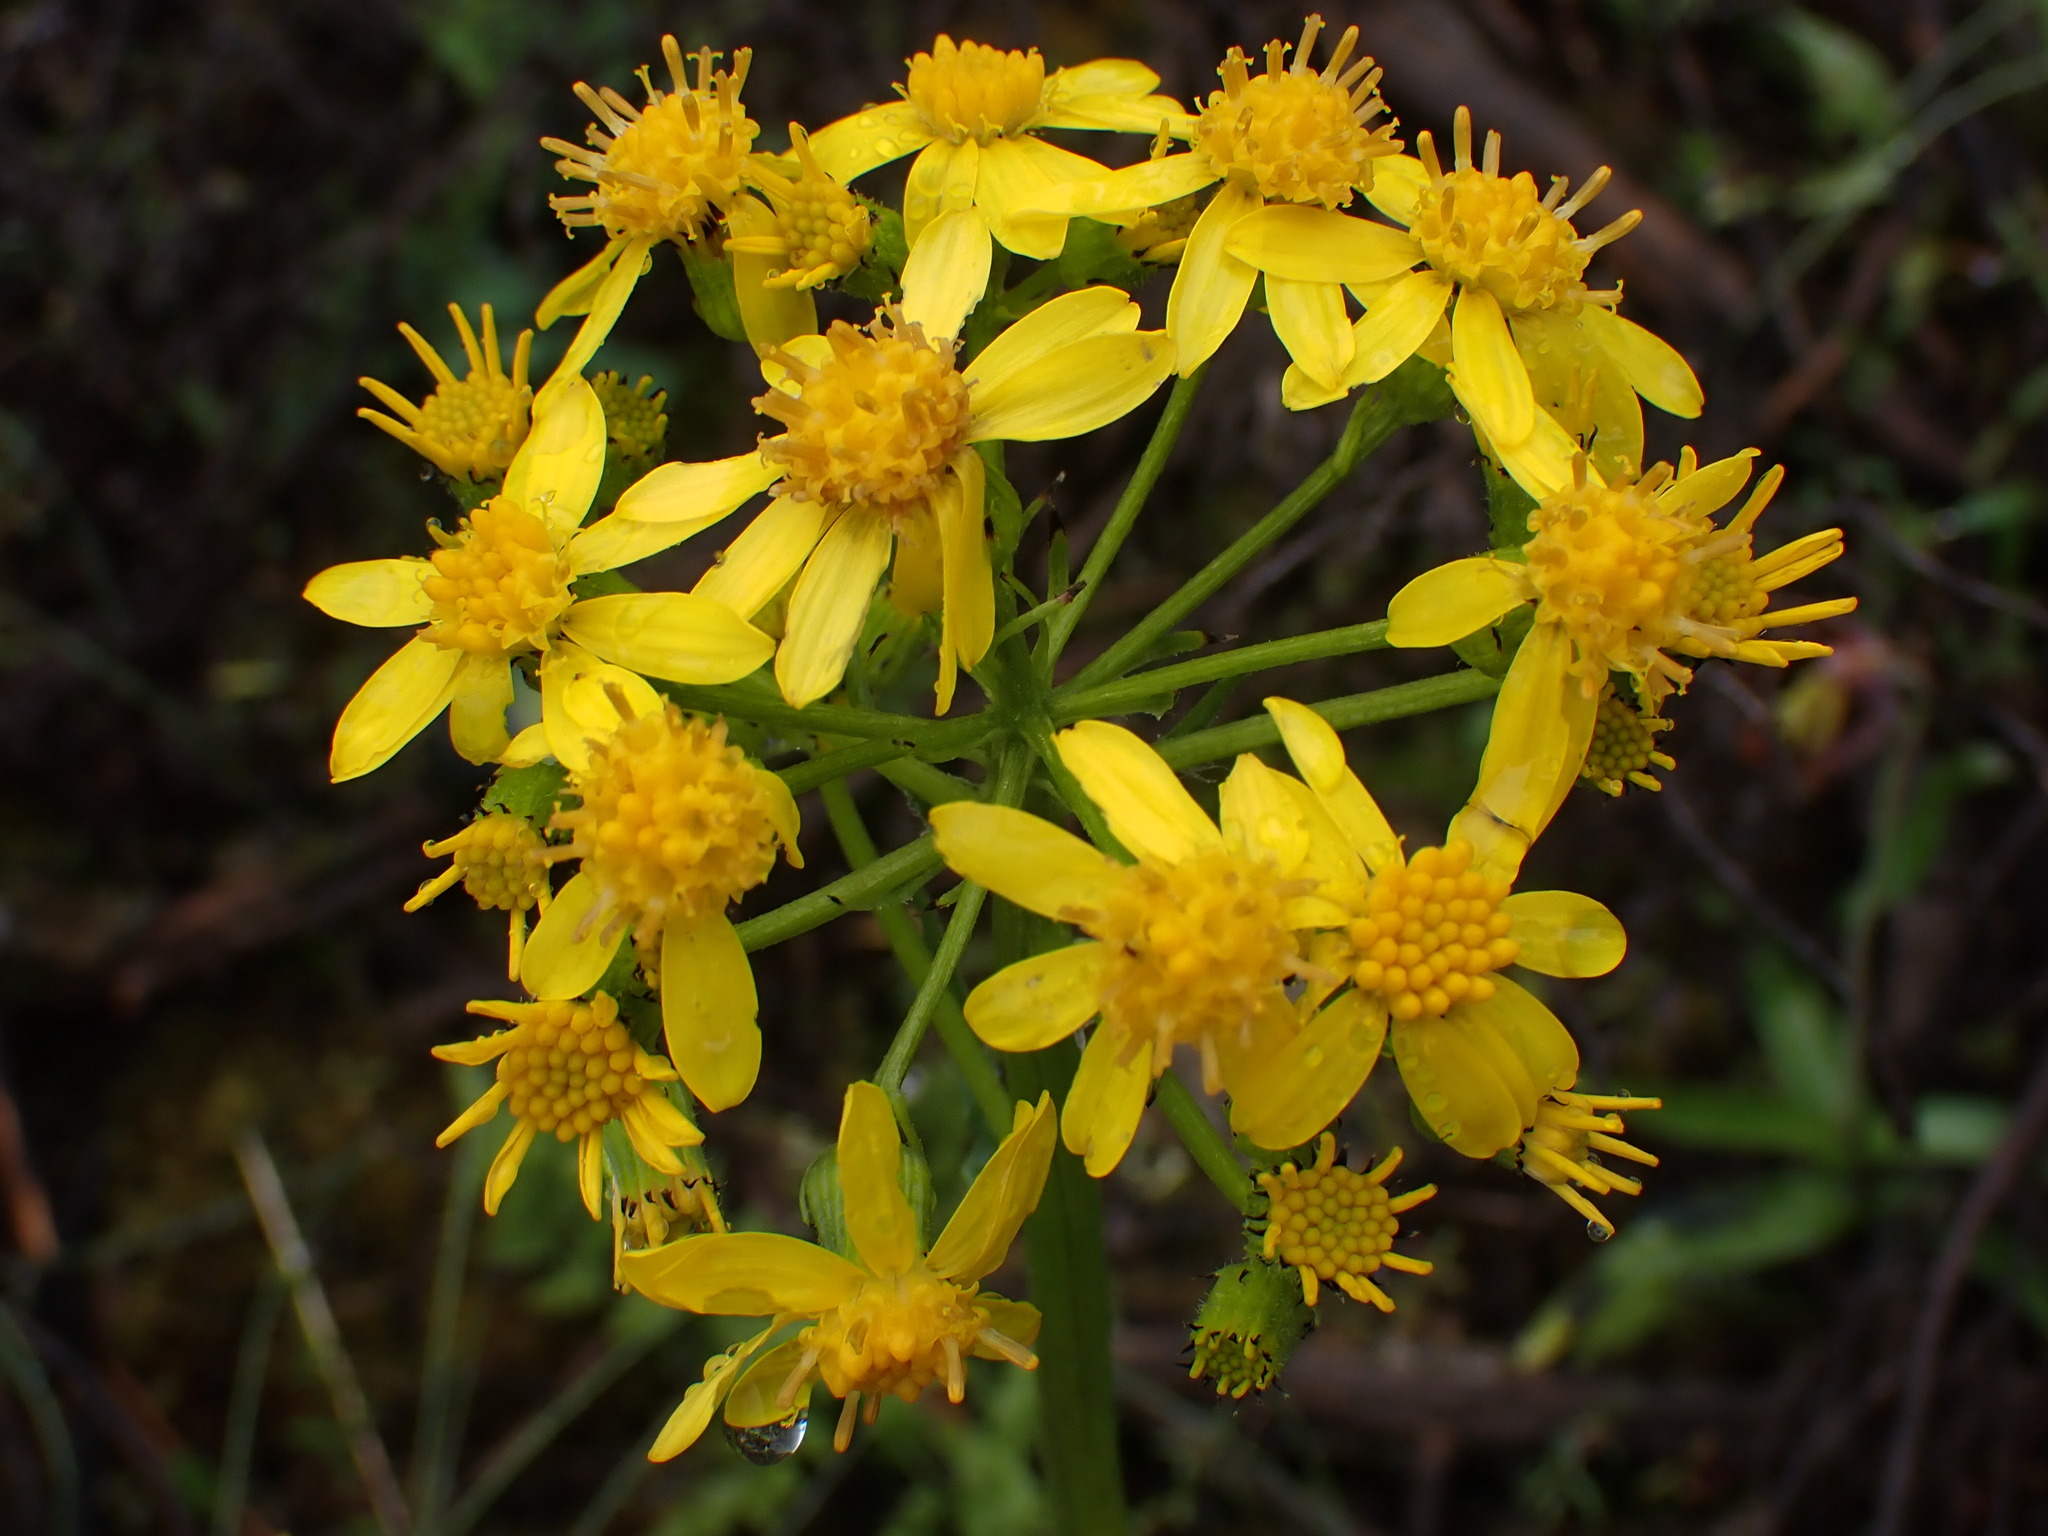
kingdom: Plantae
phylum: Tracheophyta
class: Magnoliopsida
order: Asterales
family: Asteraceae
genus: Senecio
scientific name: Senecio integerrimus
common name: Gaugeplant
